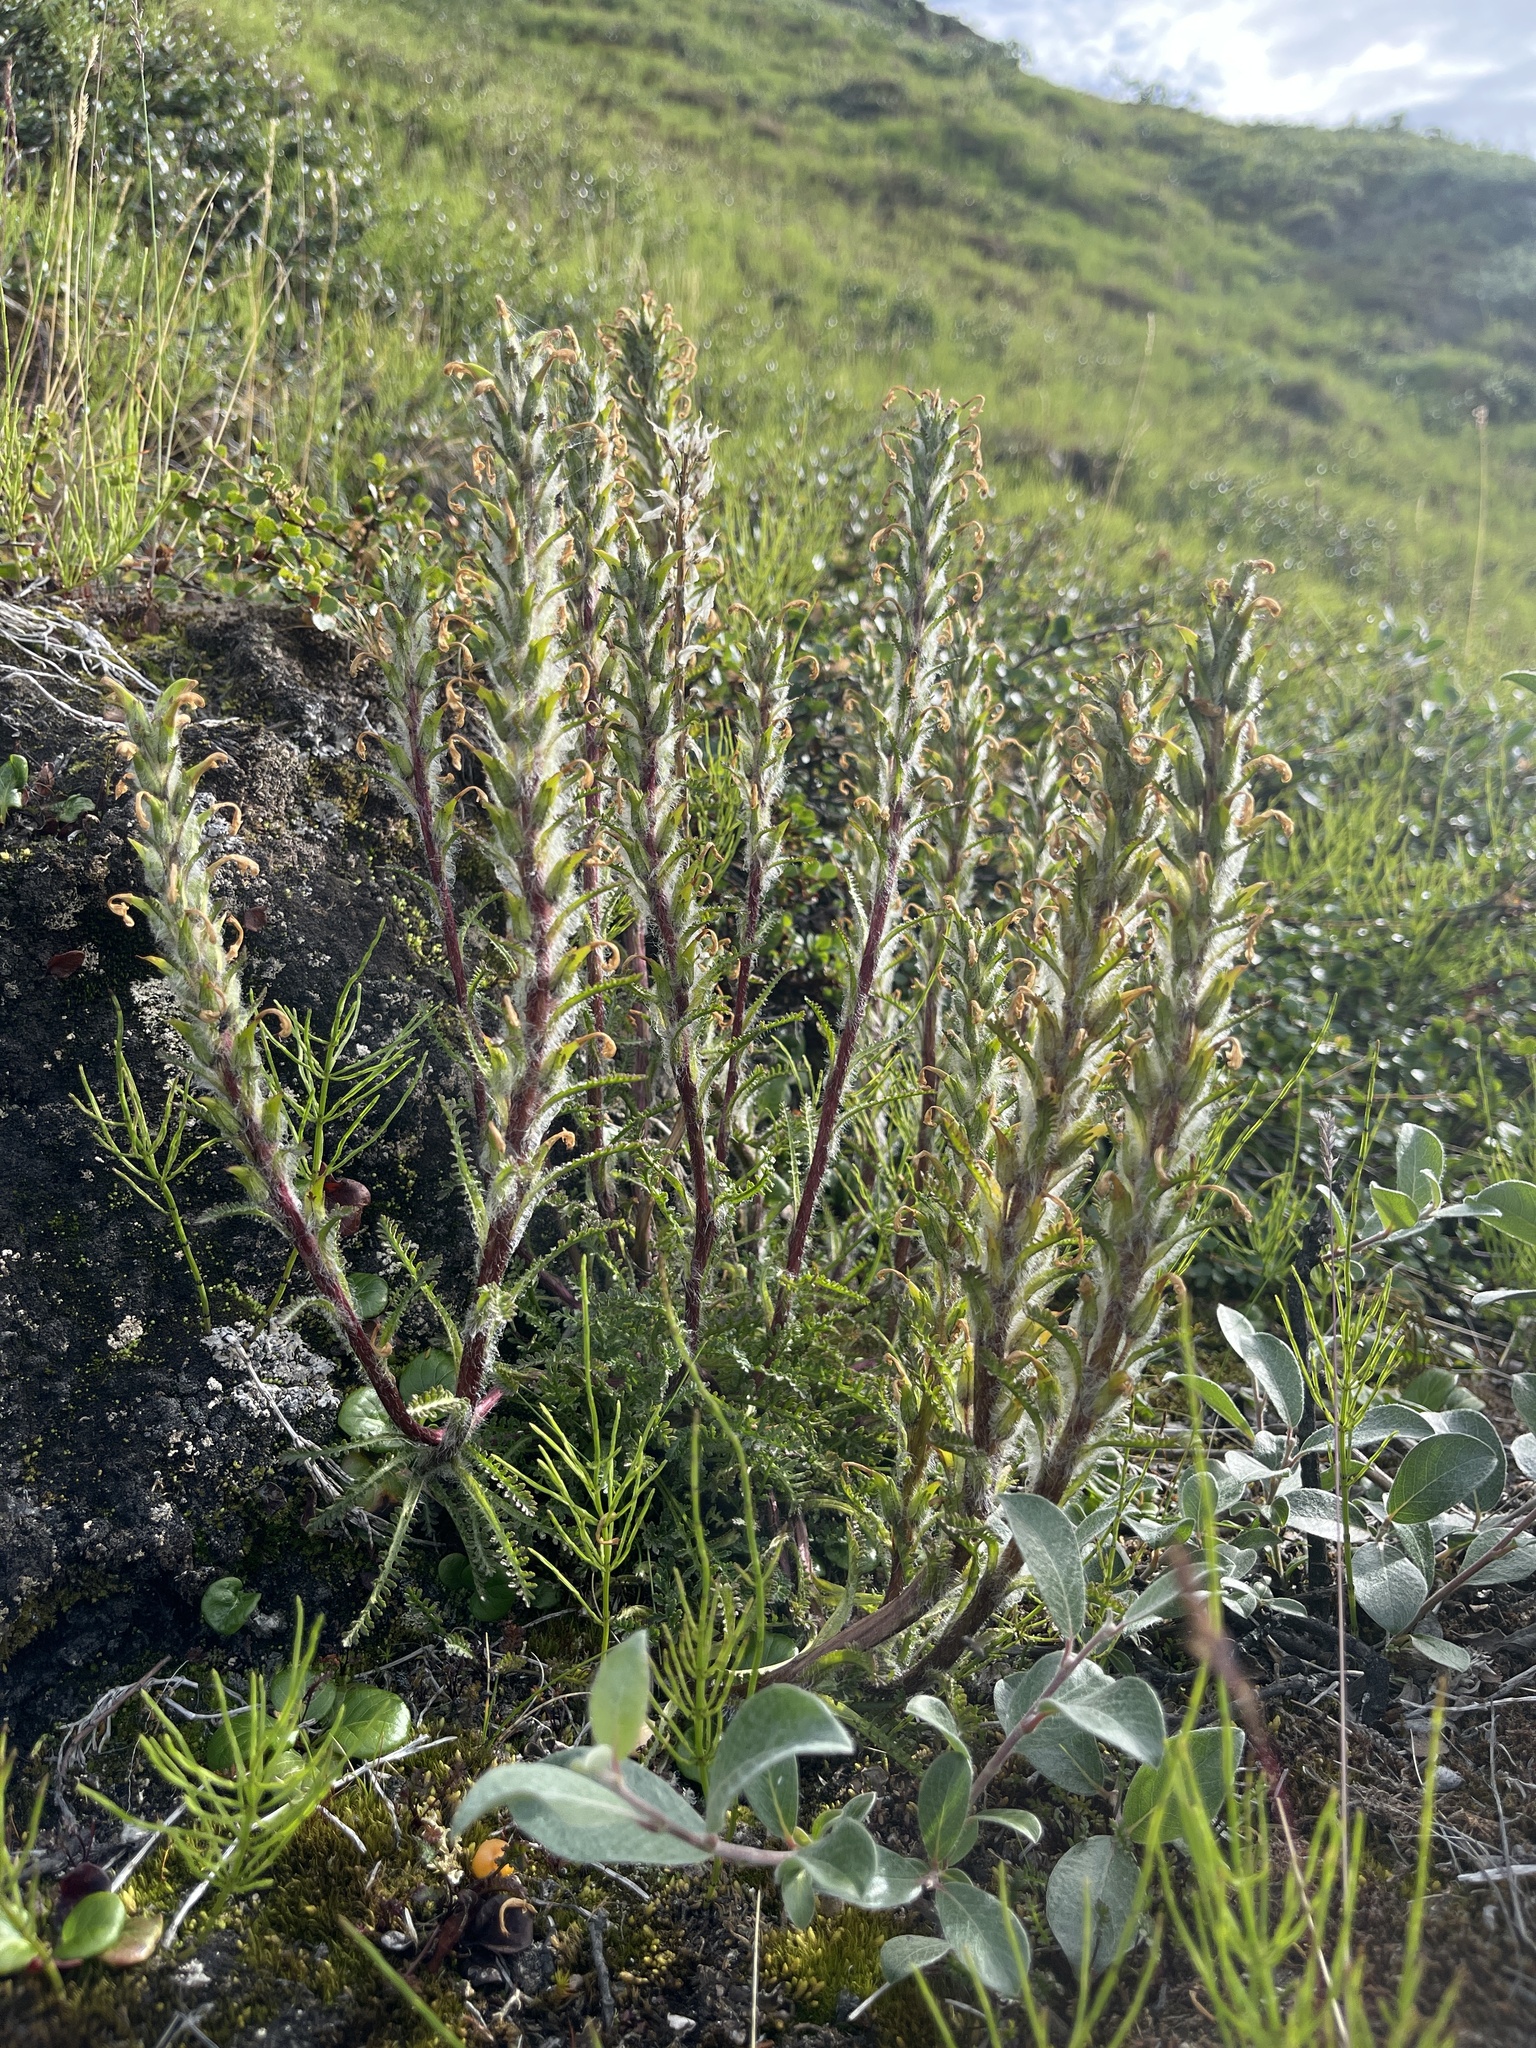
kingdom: Plantae
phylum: Tracheophyta
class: Magnoliopsida
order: Lamiales
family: Orobanchaceae
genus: Pedicularis
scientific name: Pedicularis hirsuta
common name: Hairy lousewort
